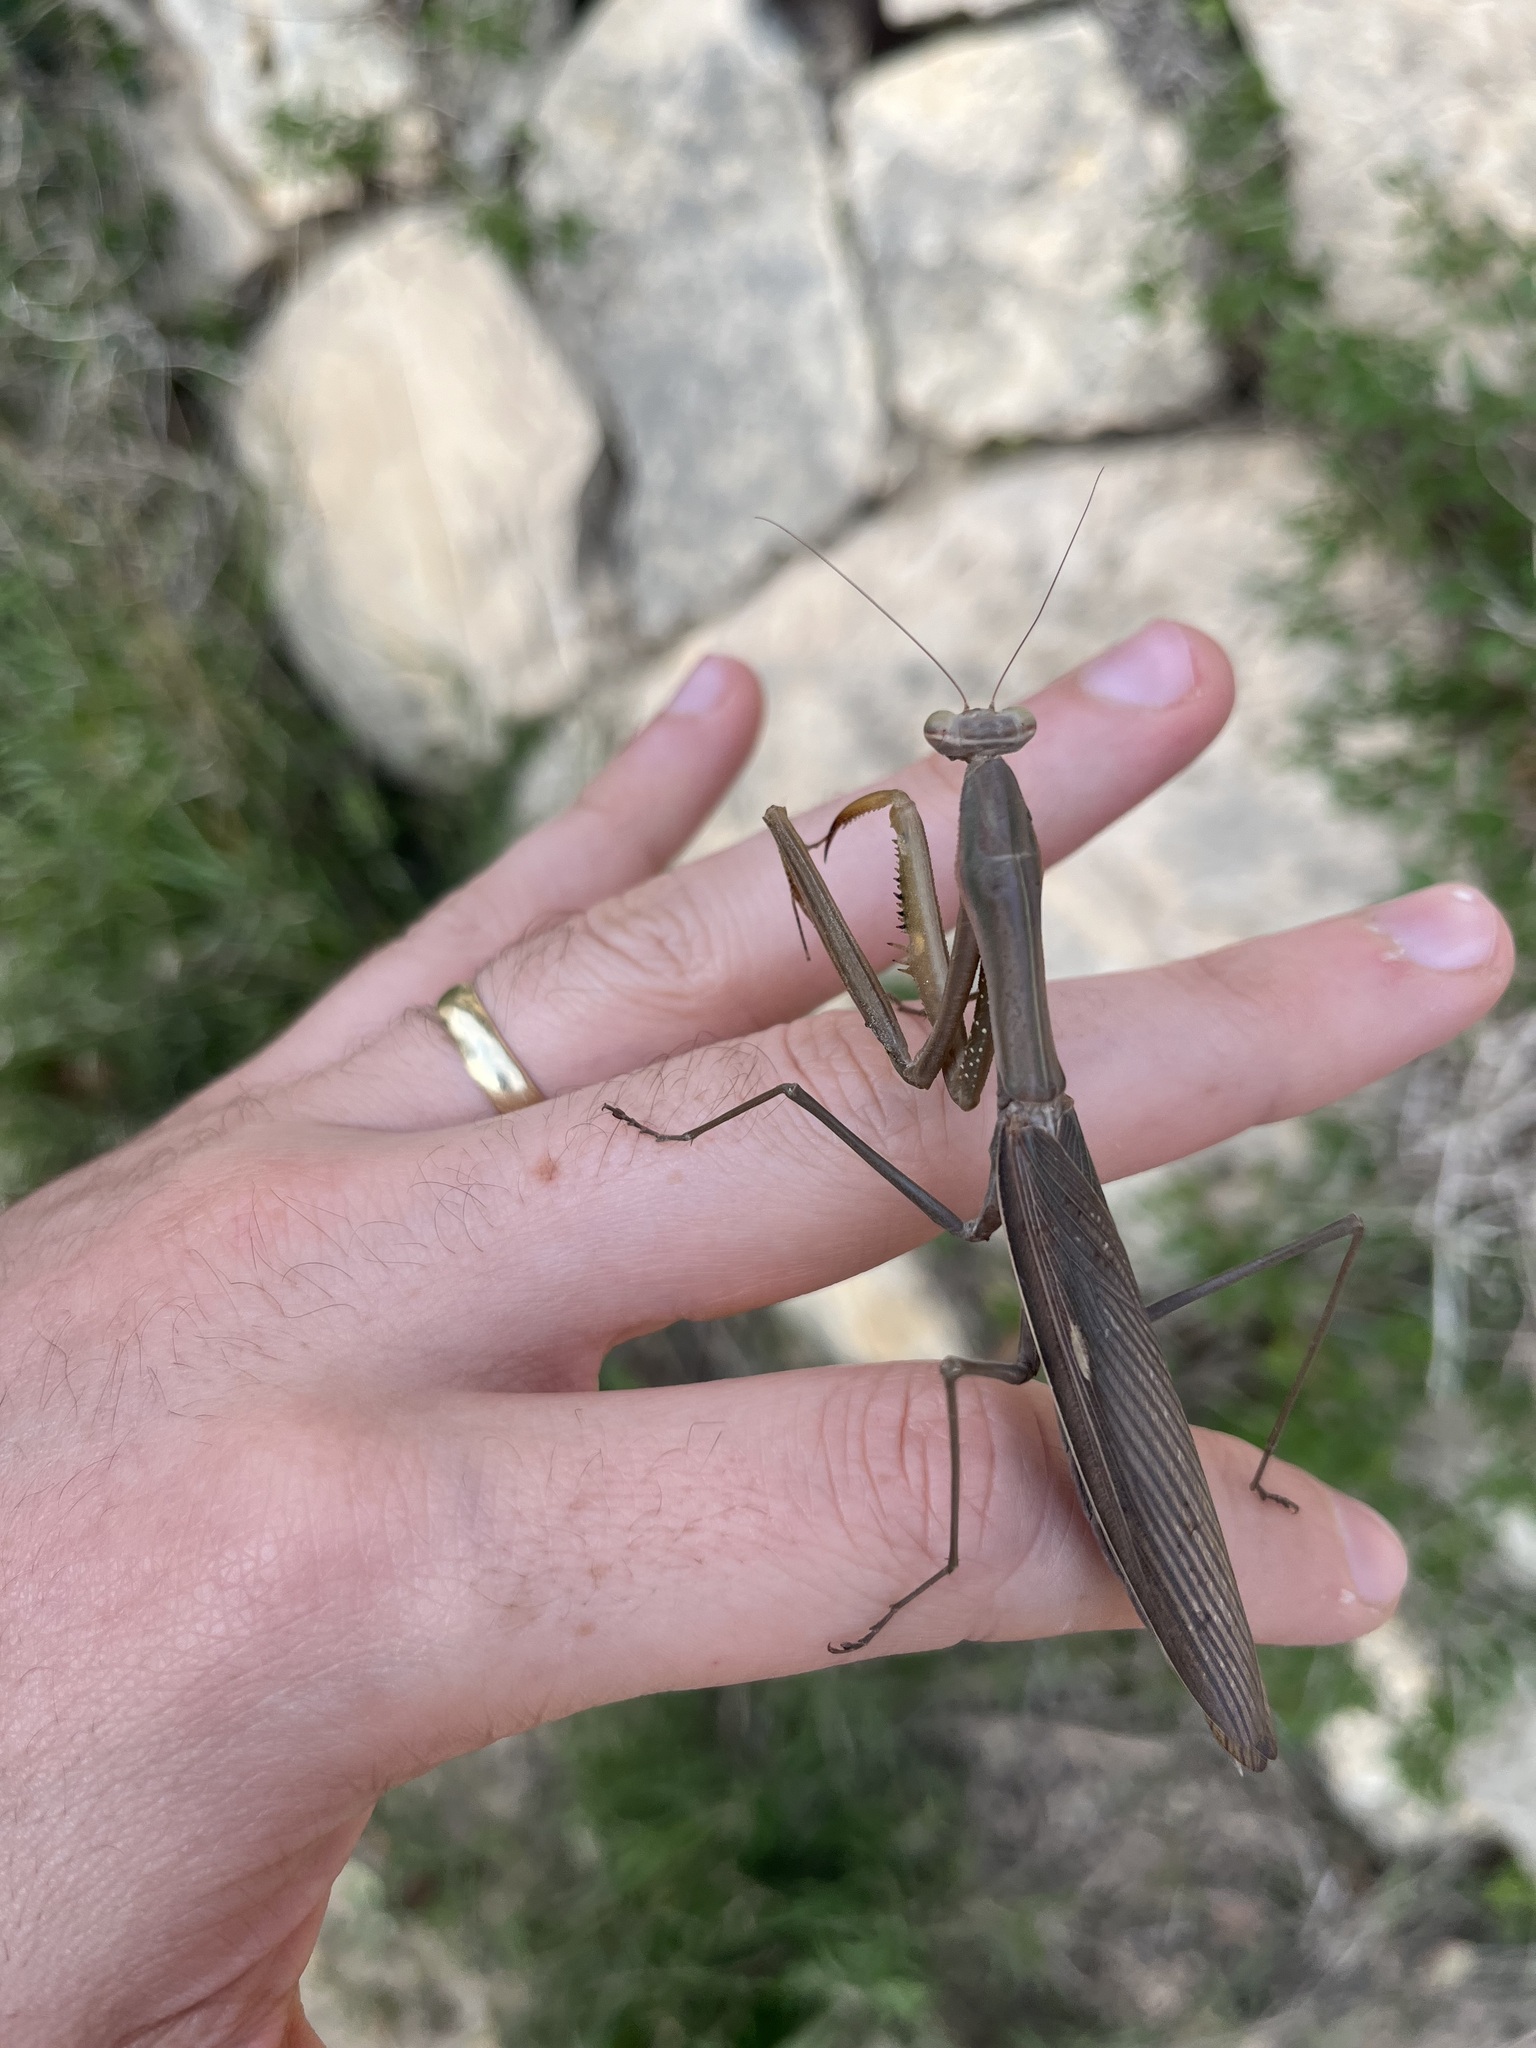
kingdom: Animalia
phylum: Arthropoda
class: Insecta
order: Mantodea
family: Mantidae
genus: Mantis
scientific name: Mantis religiosa
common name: Praying mantis
